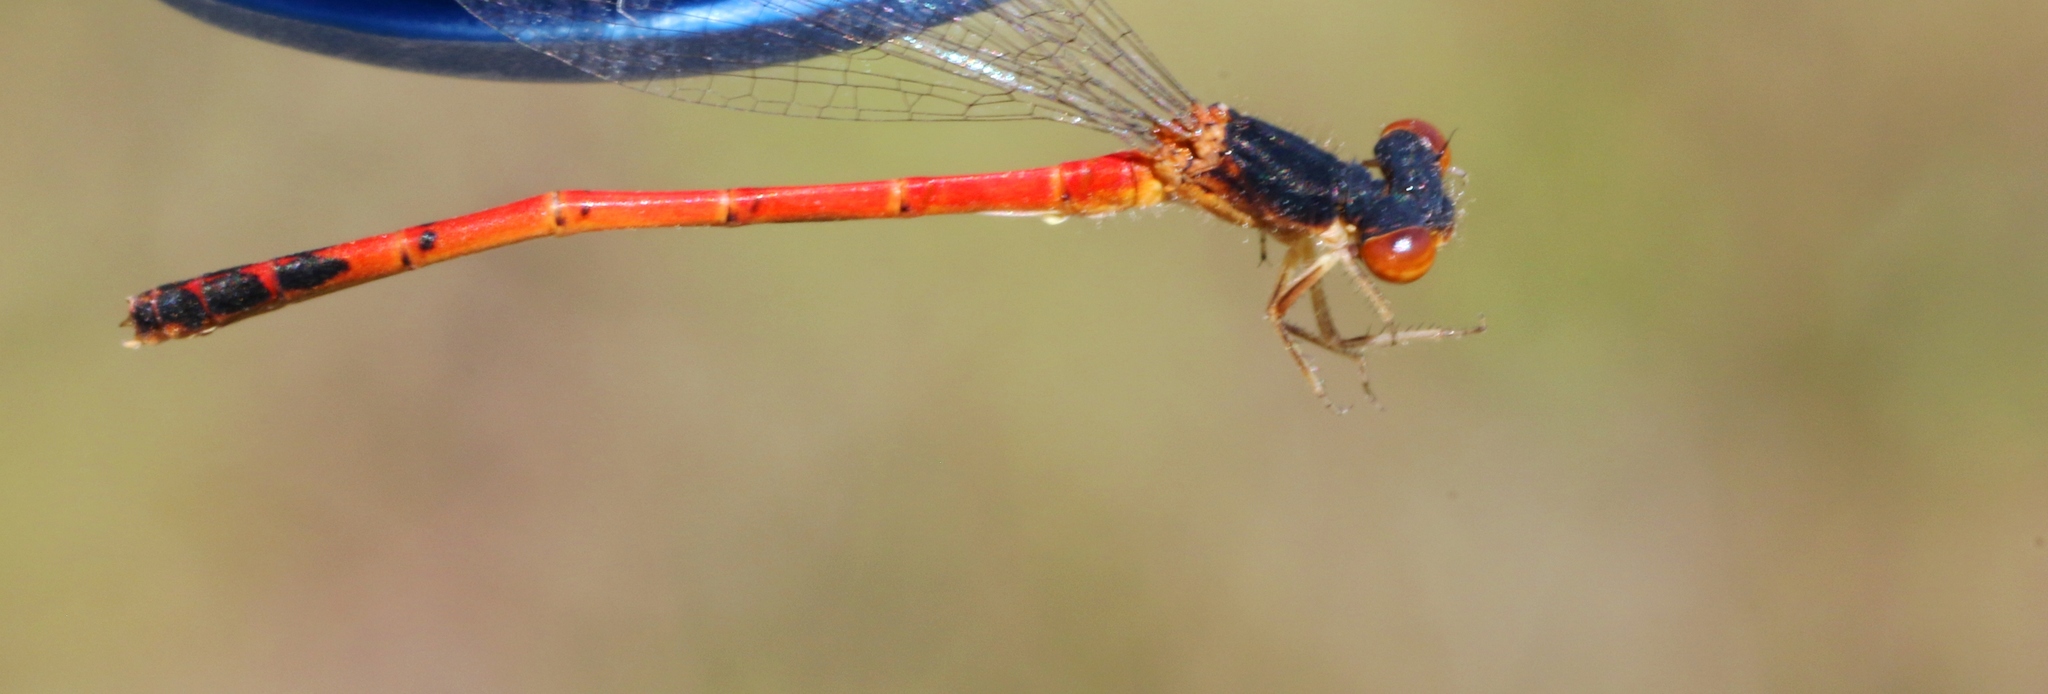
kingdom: Animalia
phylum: Arthropoda
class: Insecta
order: Odonata
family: Coenagrionidae
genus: Amphiagrion
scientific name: Amphiagrion saucium
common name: Eastern red damsel
